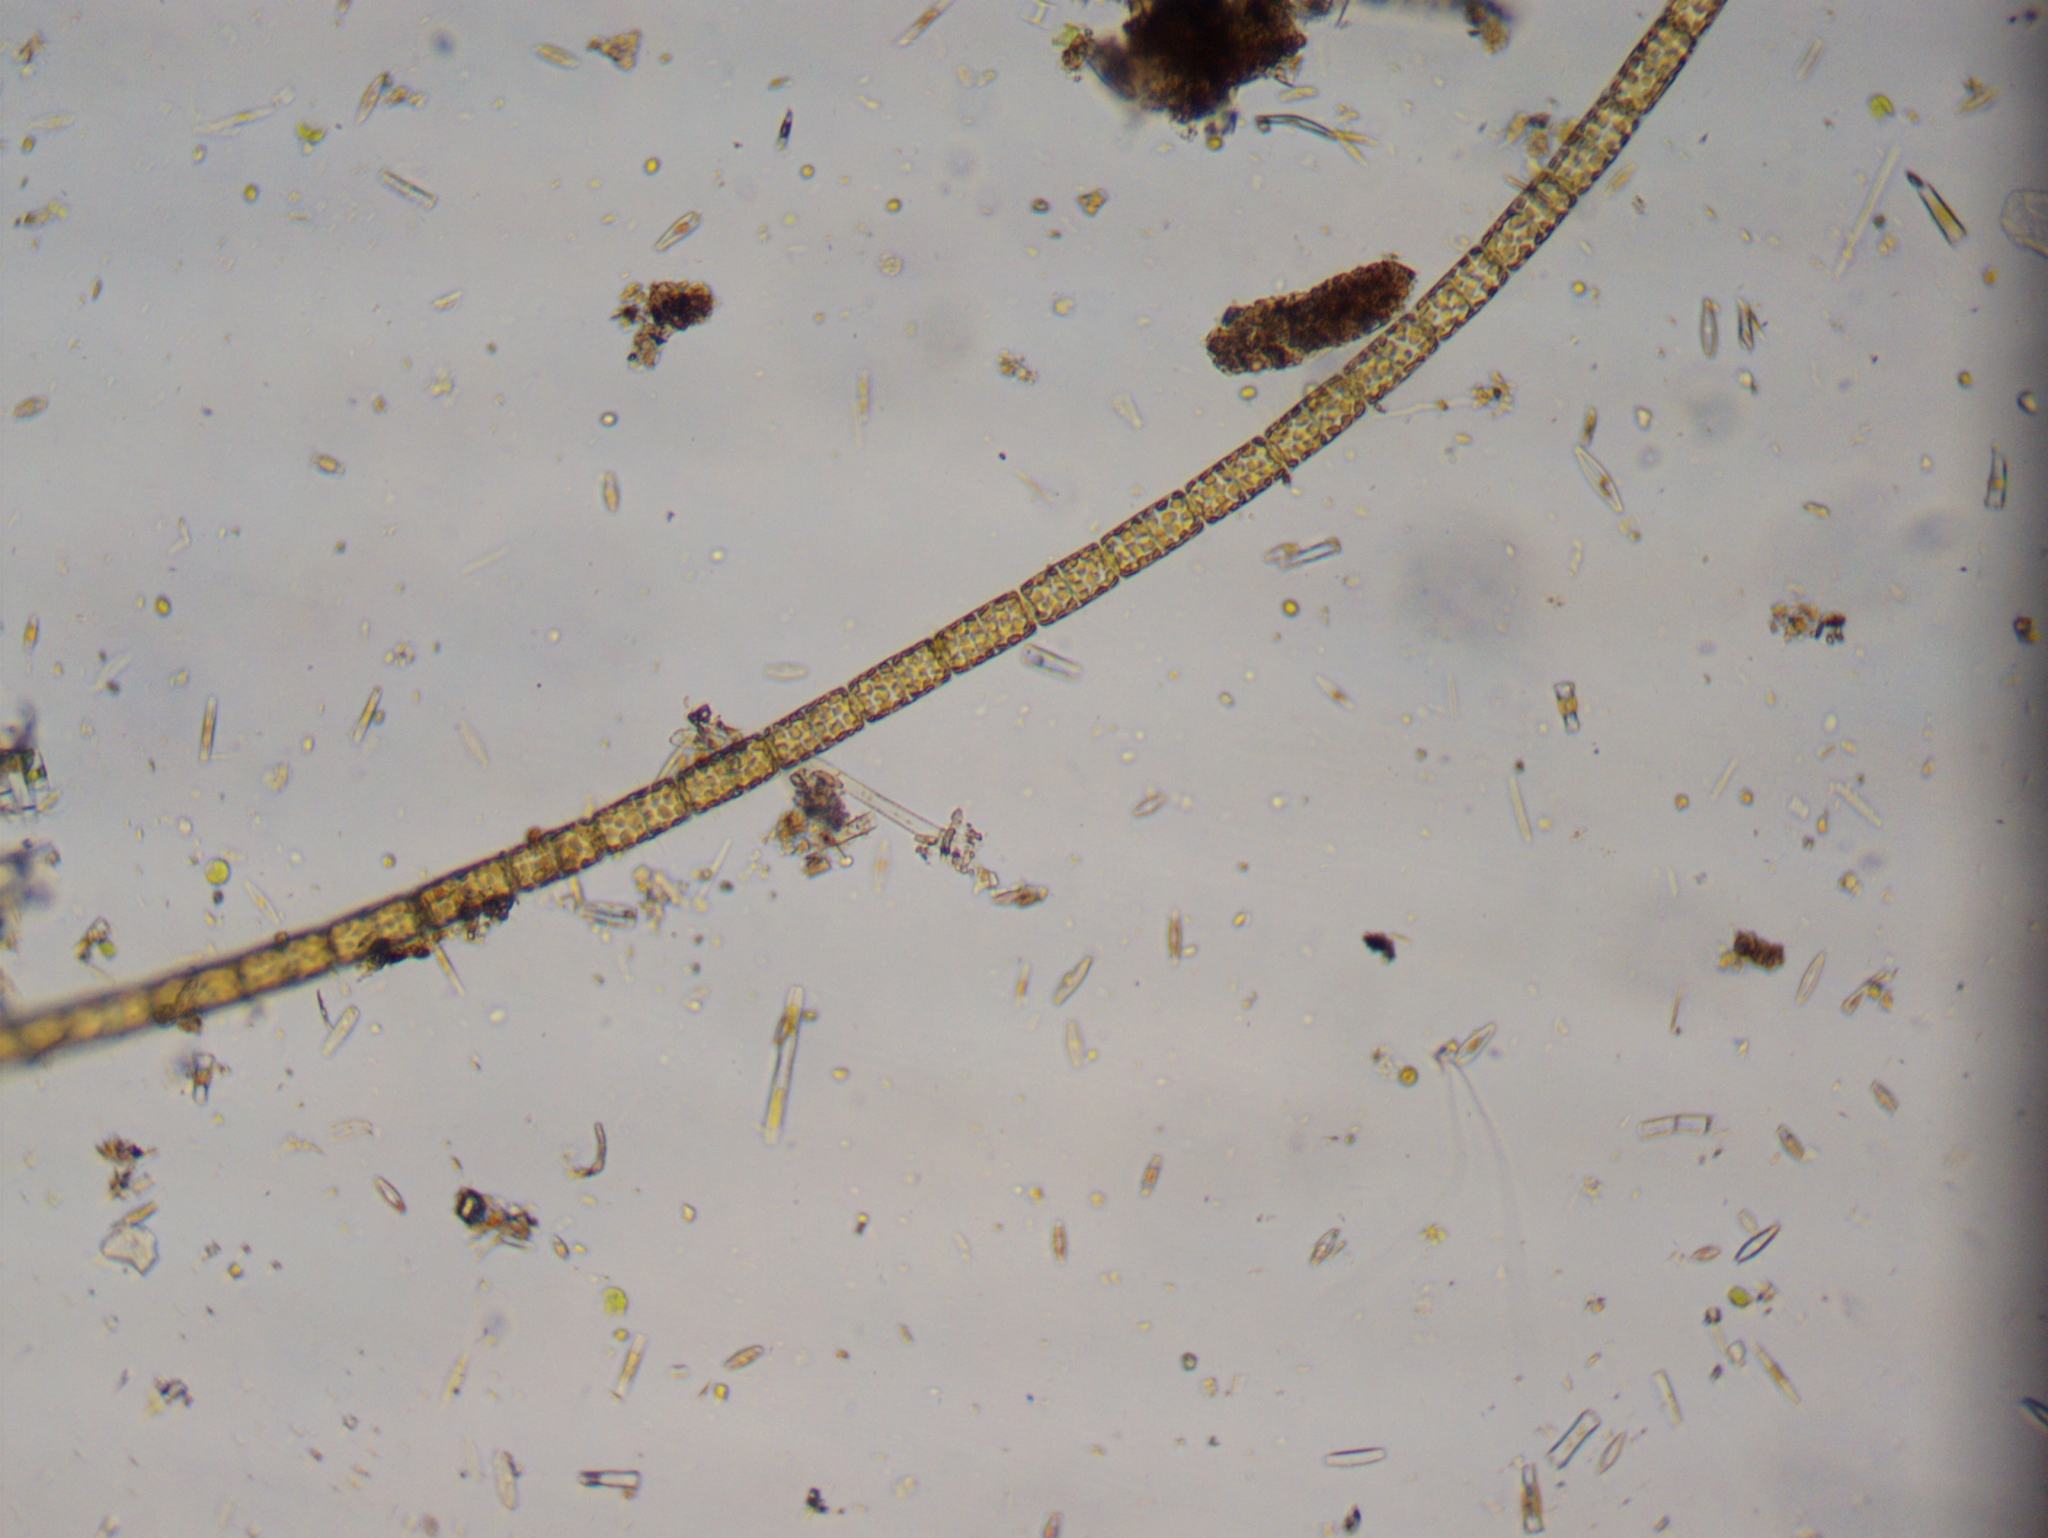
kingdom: Chromista
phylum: Ochrophyta
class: Bacillariophyceae
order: Melosirales
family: Melosiraceae
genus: Melosira
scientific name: Melosira varians
